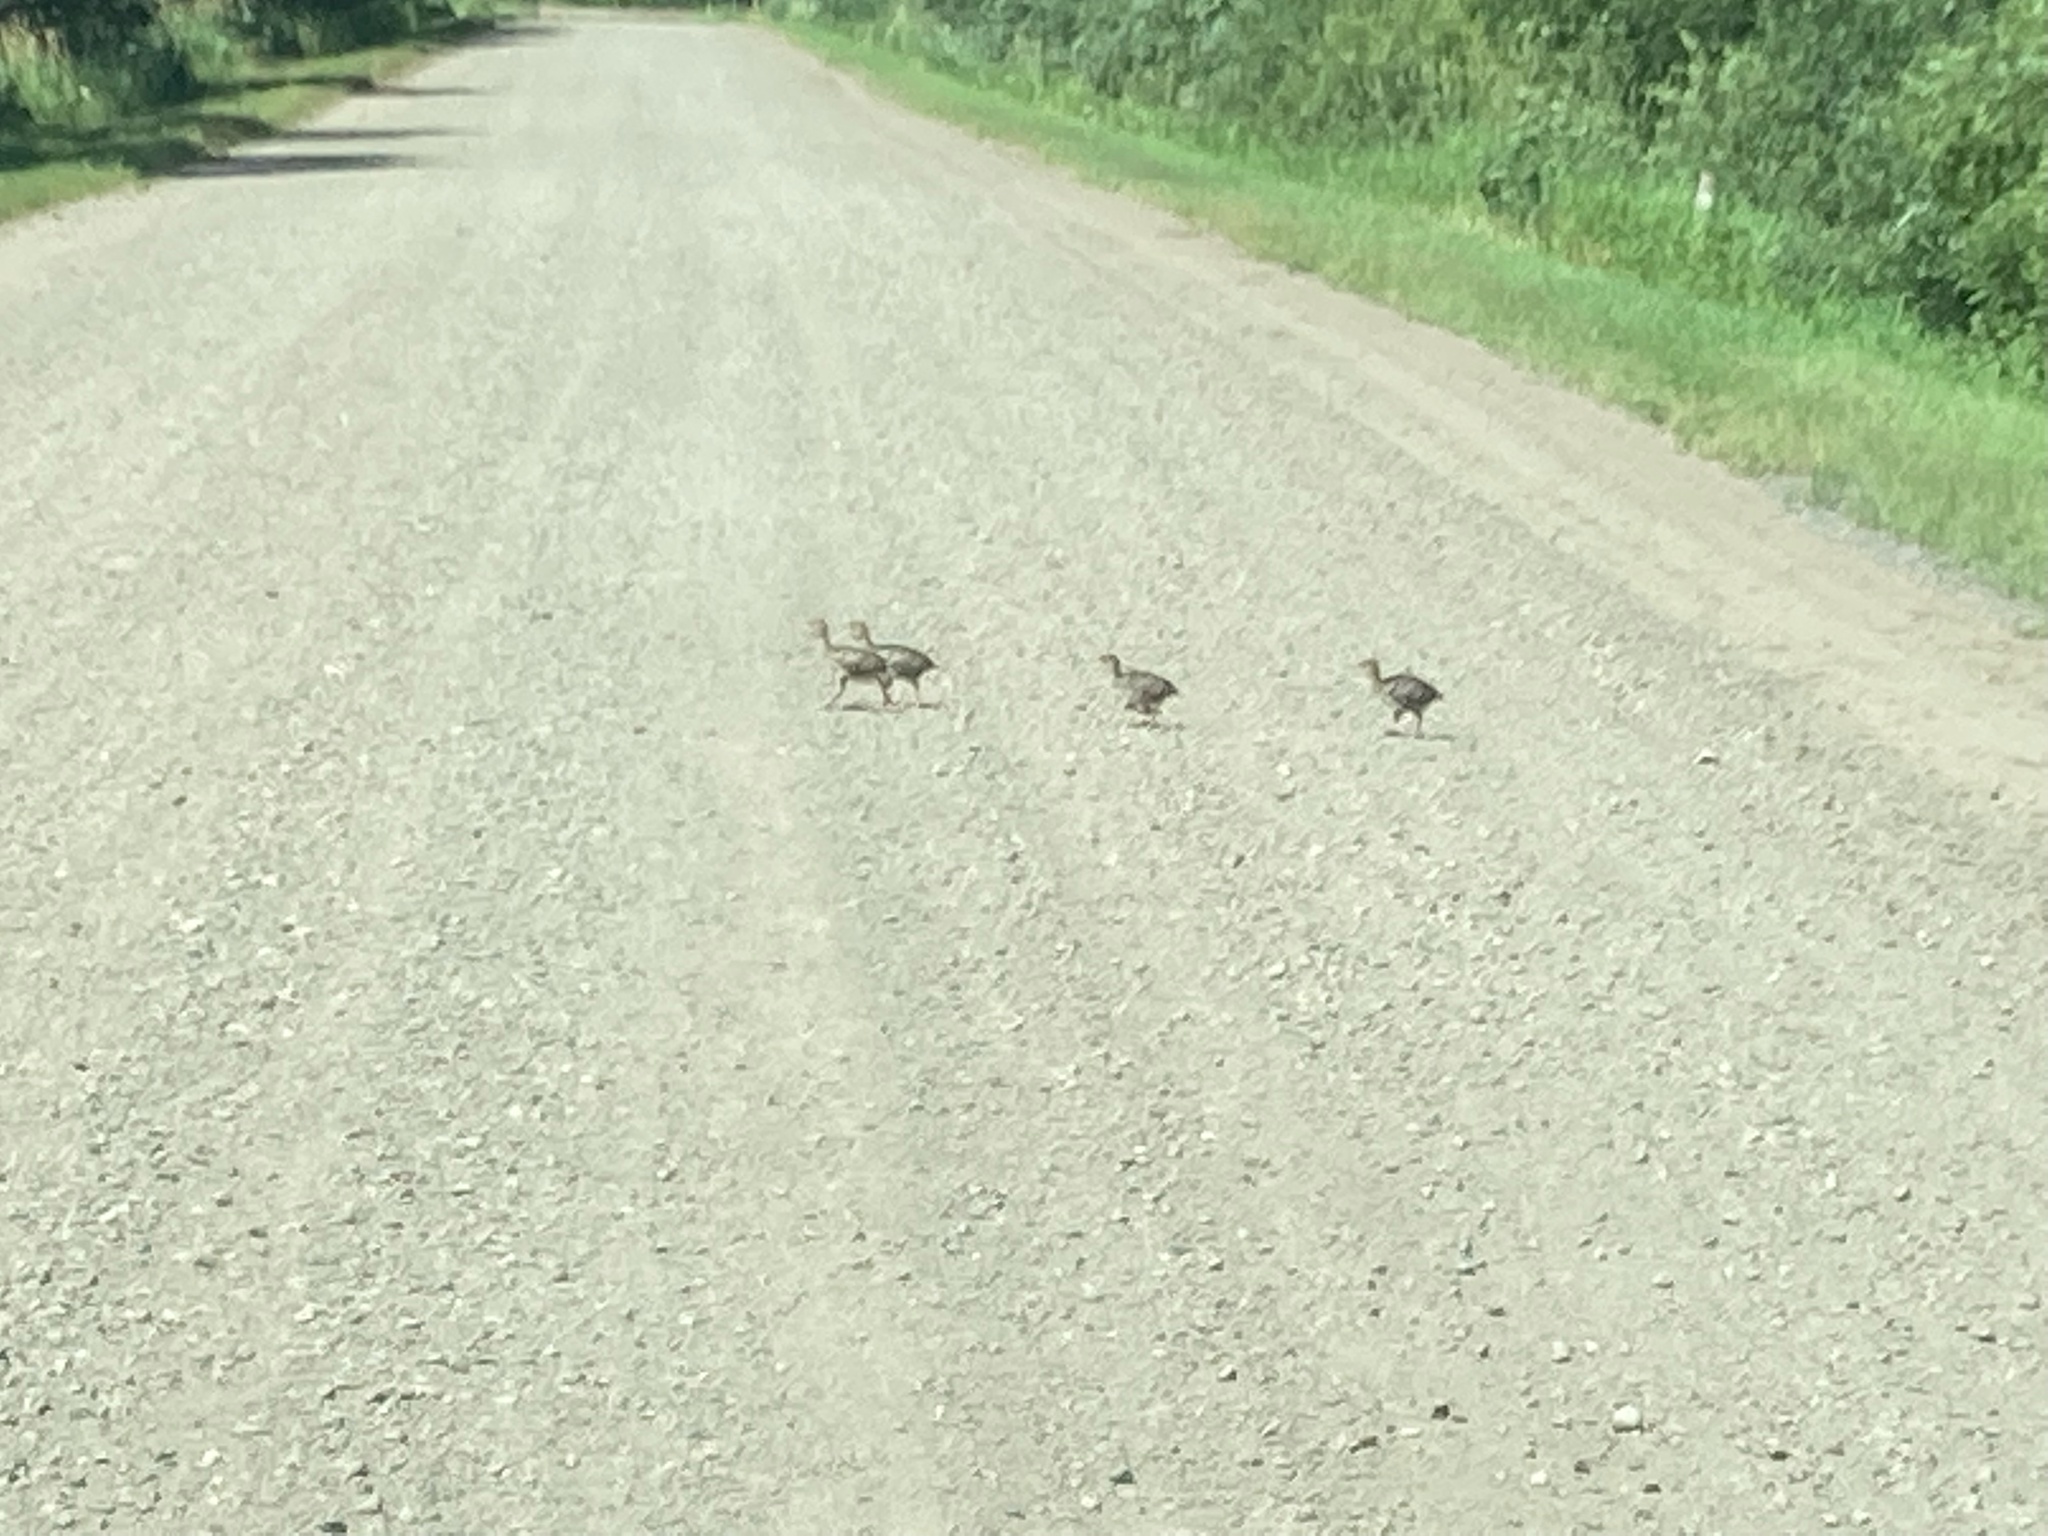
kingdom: Animalia
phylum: Chordata
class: Aves
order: Galliformes
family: Phasianidae
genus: Meleagris
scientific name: Meleagris gallopavo
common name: Wild turkey
